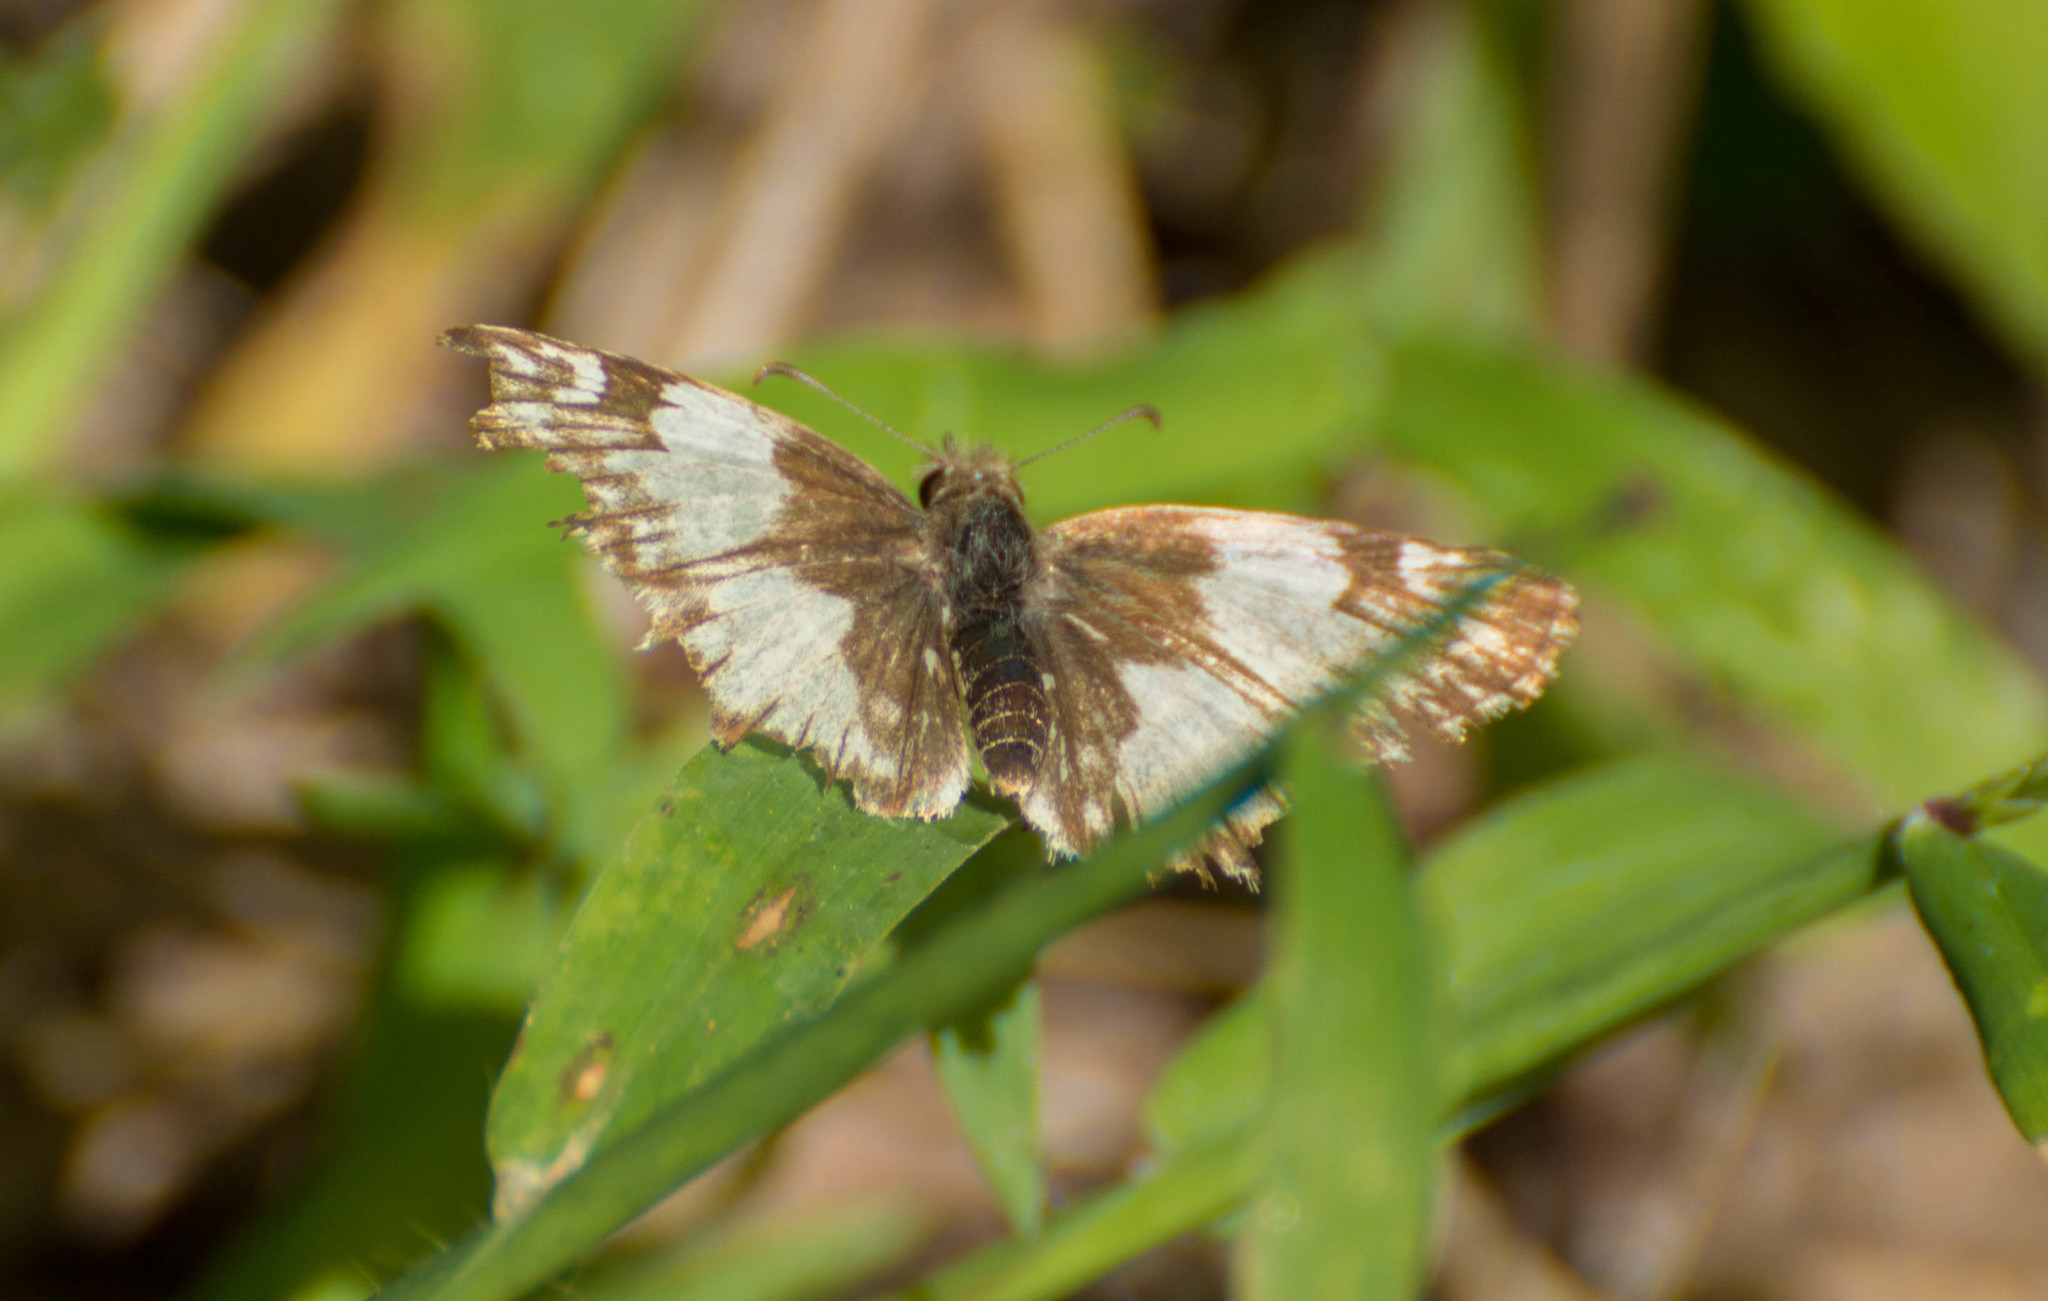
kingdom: Animalia
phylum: Arthropoda
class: Insecta
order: Lepidoptera
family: Hesperiidae
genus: Heliopetes
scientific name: Heliopetes omrina
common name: Stained white-skipper
